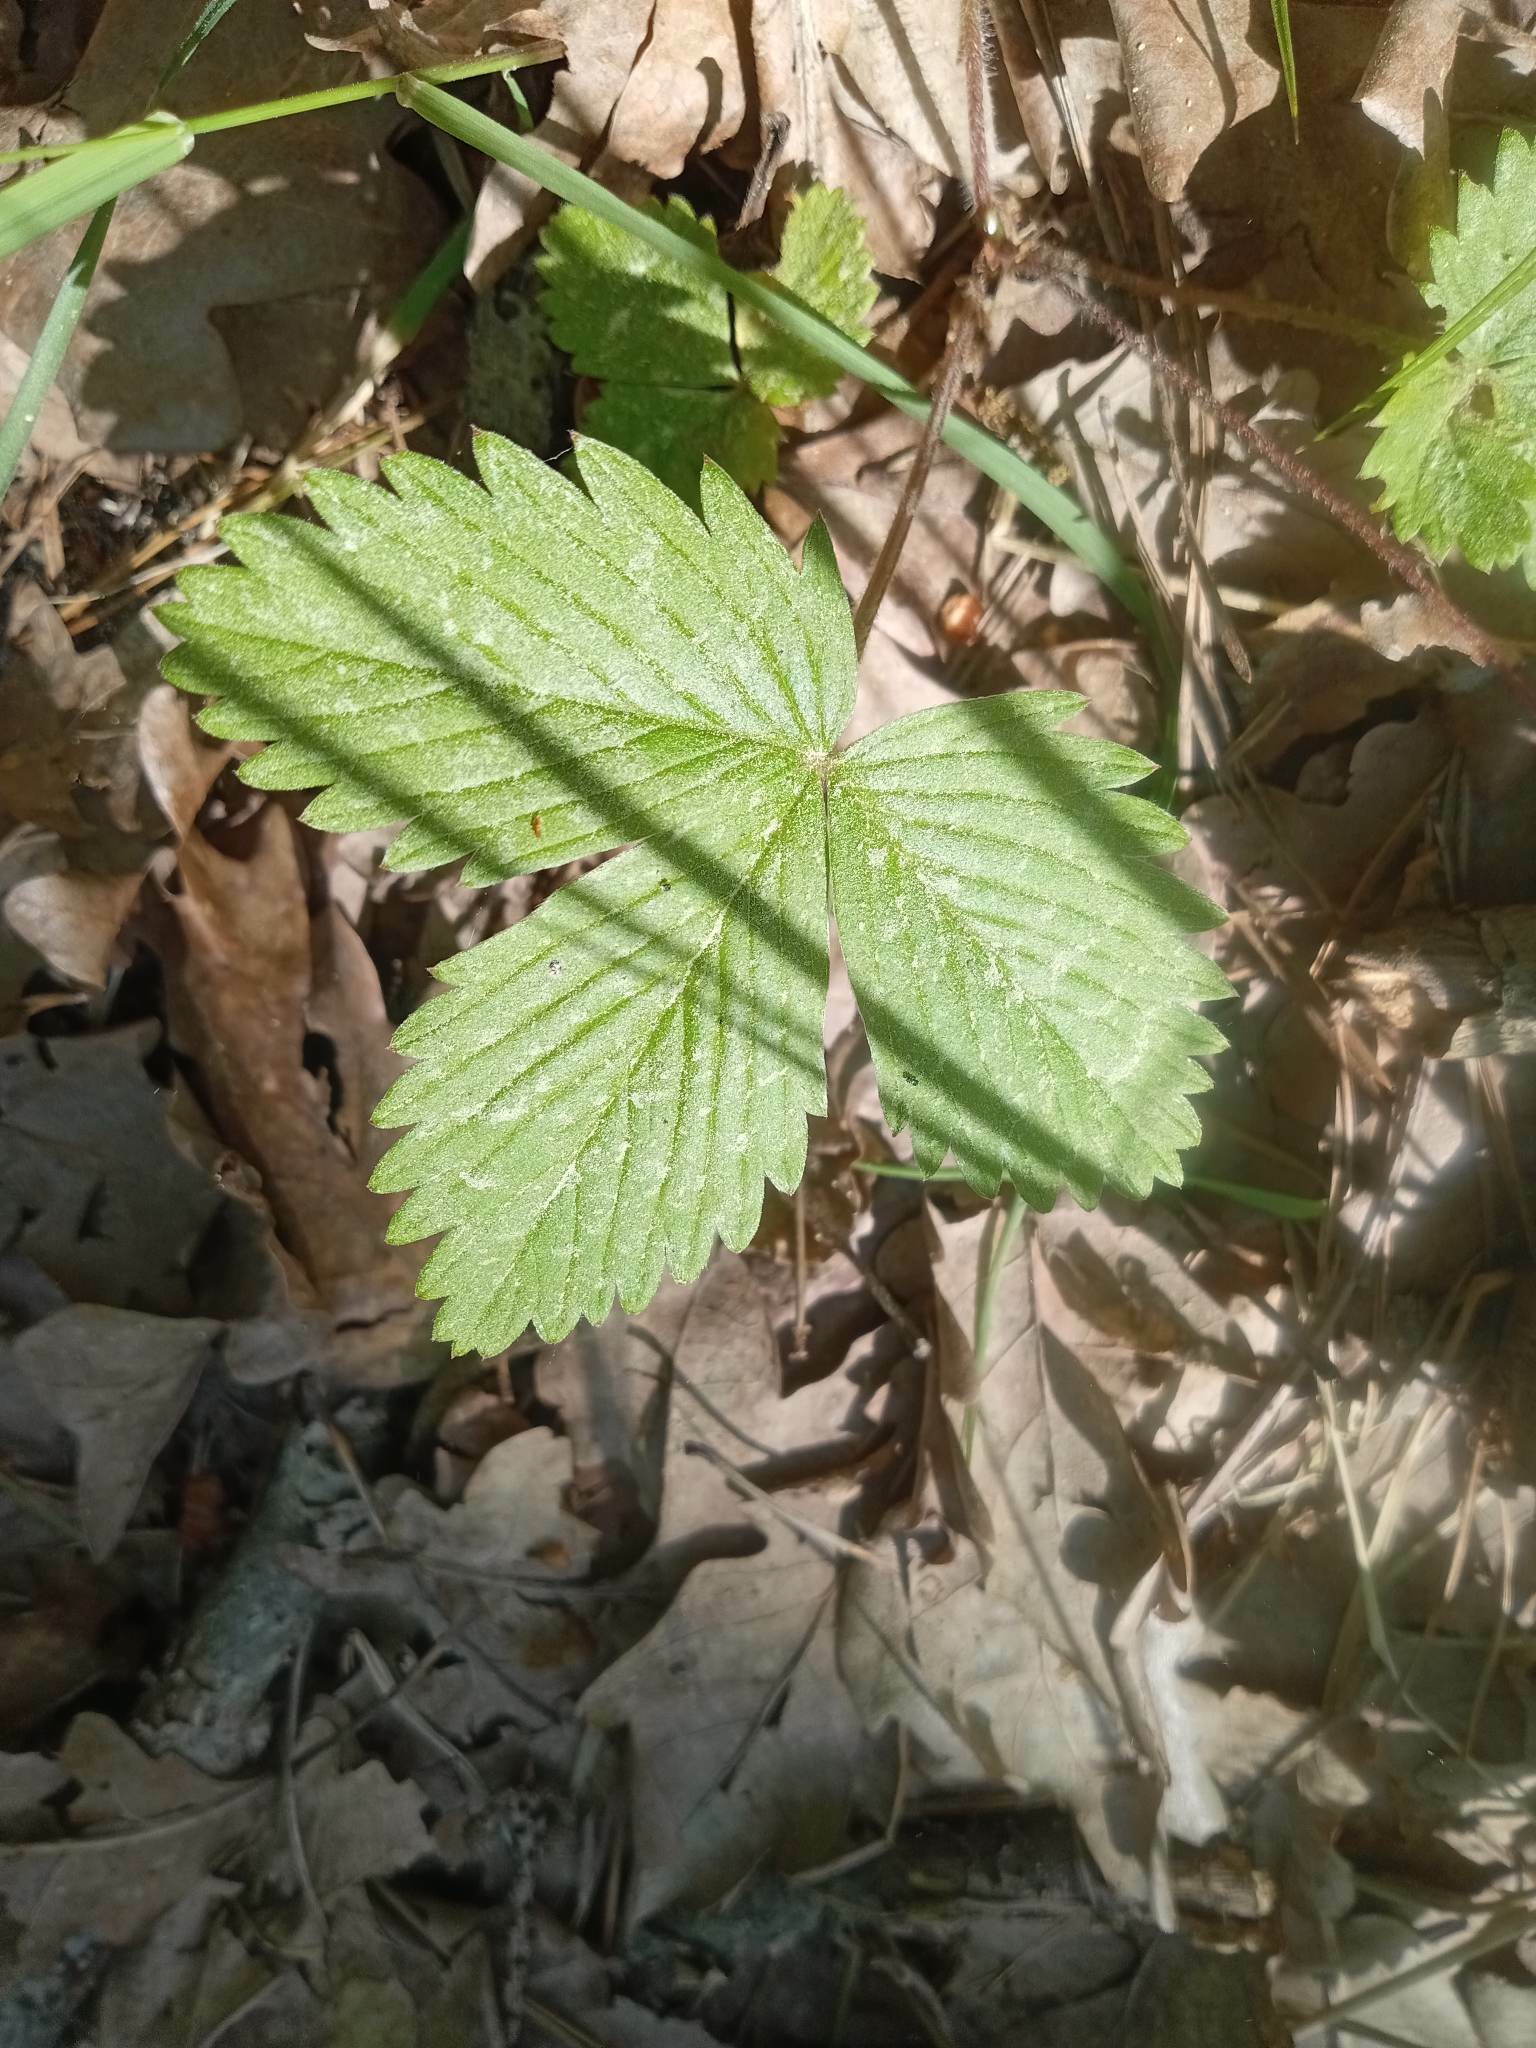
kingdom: Plantae
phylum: Tracheophyta
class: Magnoliopsida
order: Rosales
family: Rosaceae
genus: Fragaria
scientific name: Fragaria vesca
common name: Wild strawberry
